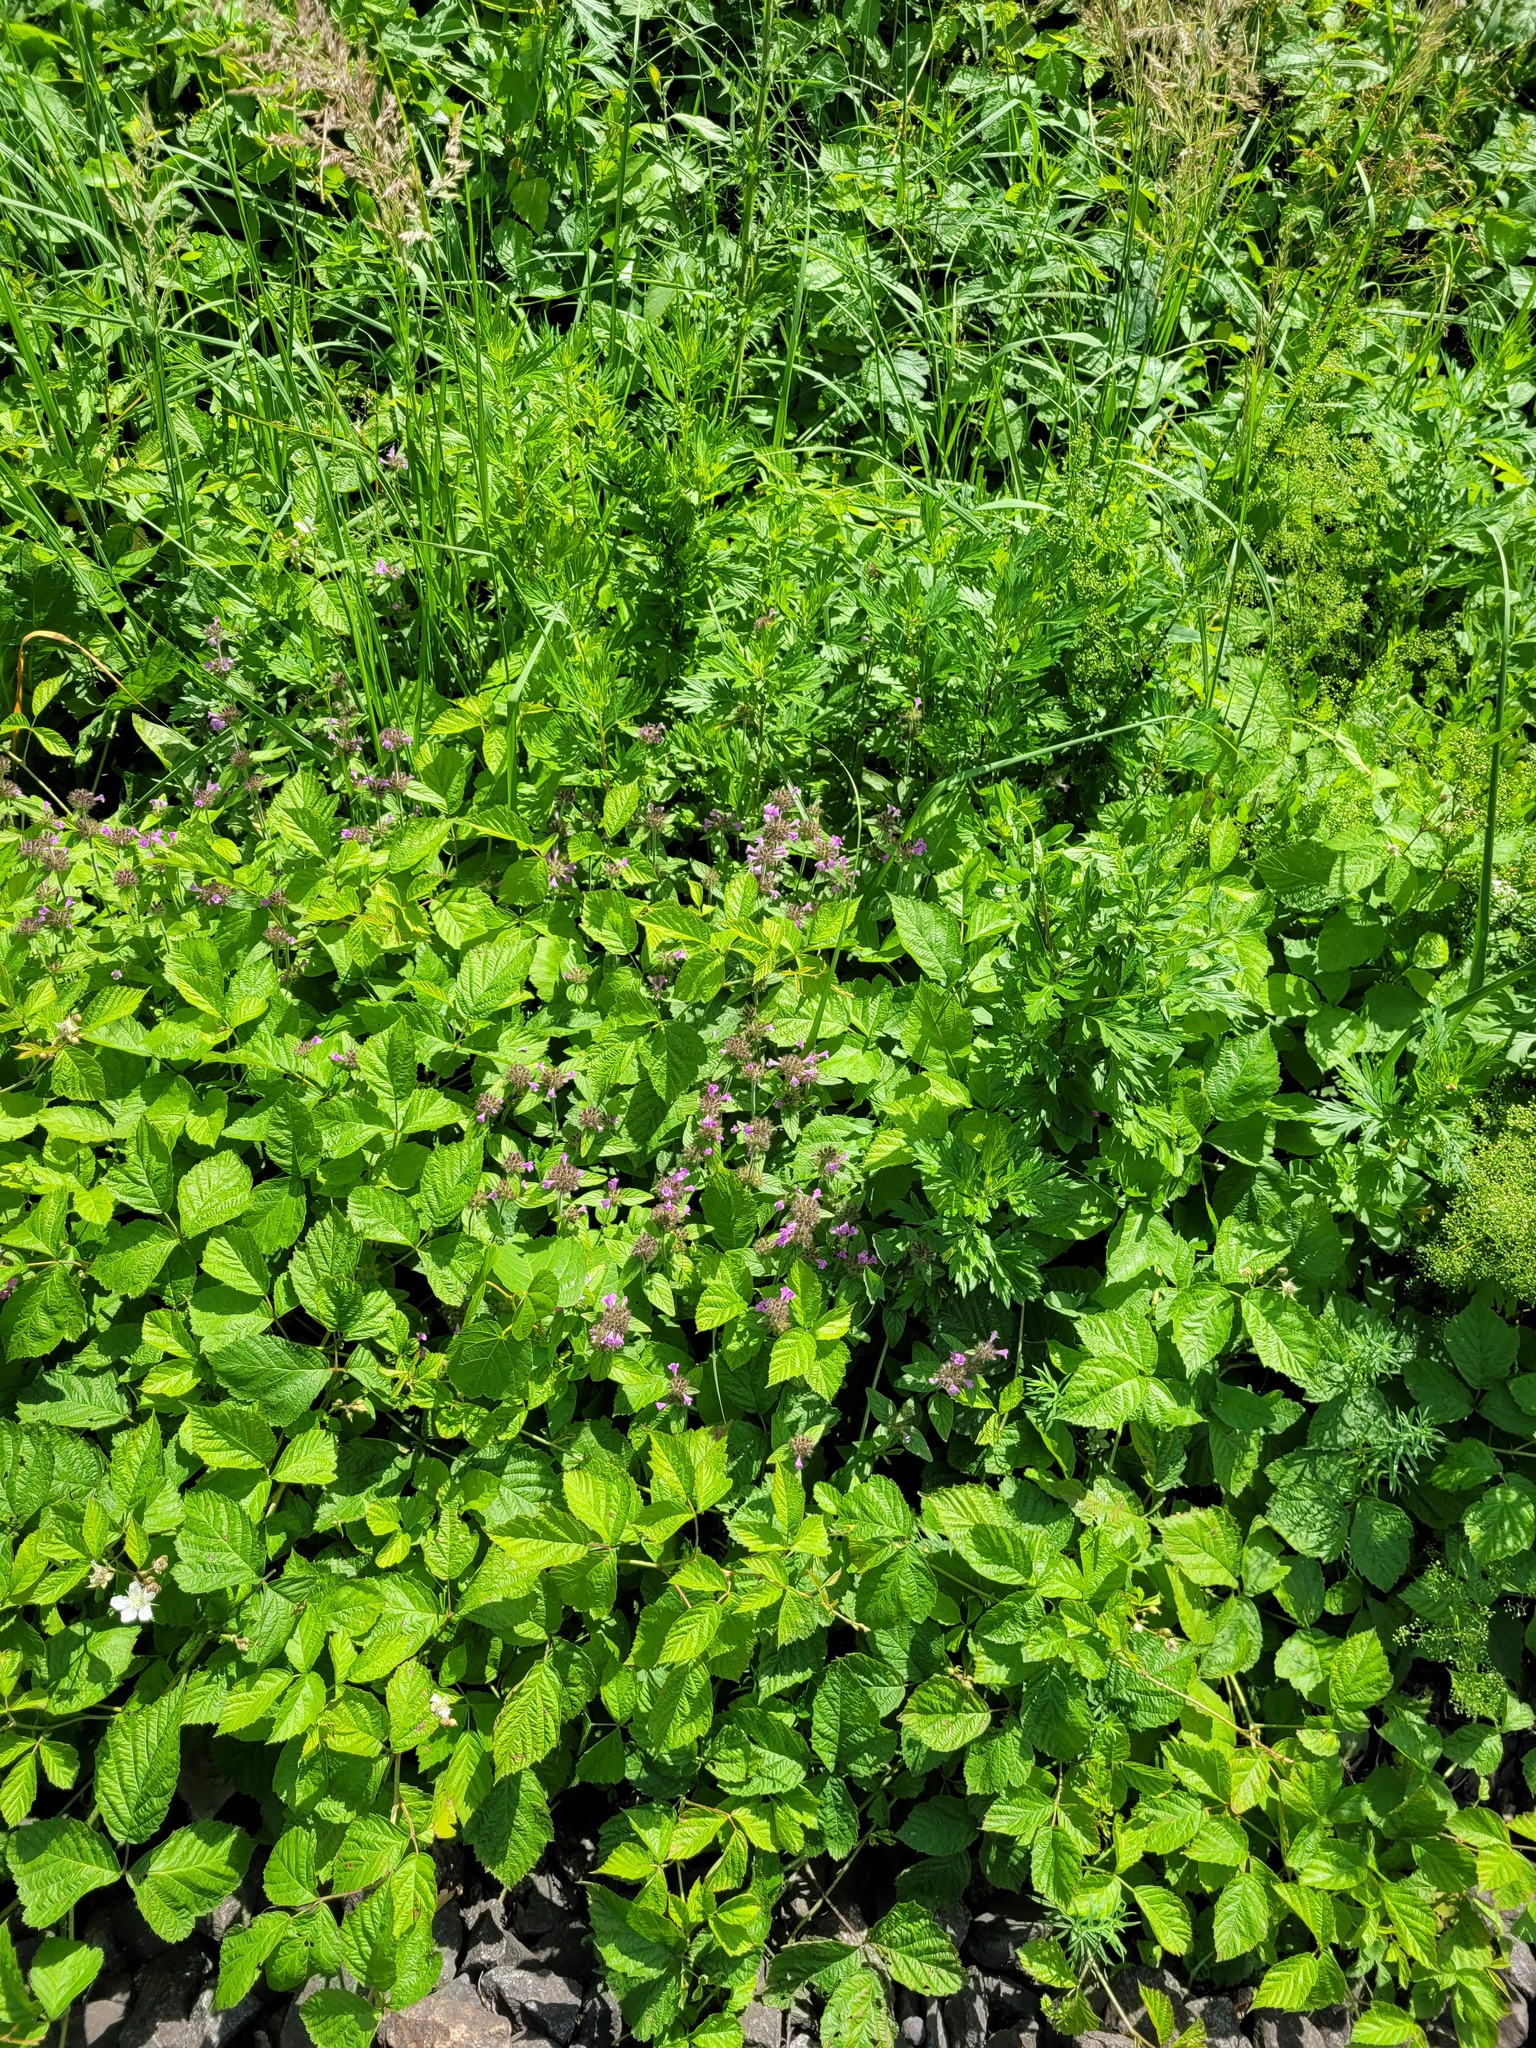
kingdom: Plantae
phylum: Tracheophyta
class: Magnoliopsida
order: Lamiales
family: Lamiaceae
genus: Clinopodium
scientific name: Clinopodium vulgare
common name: Wild basil
